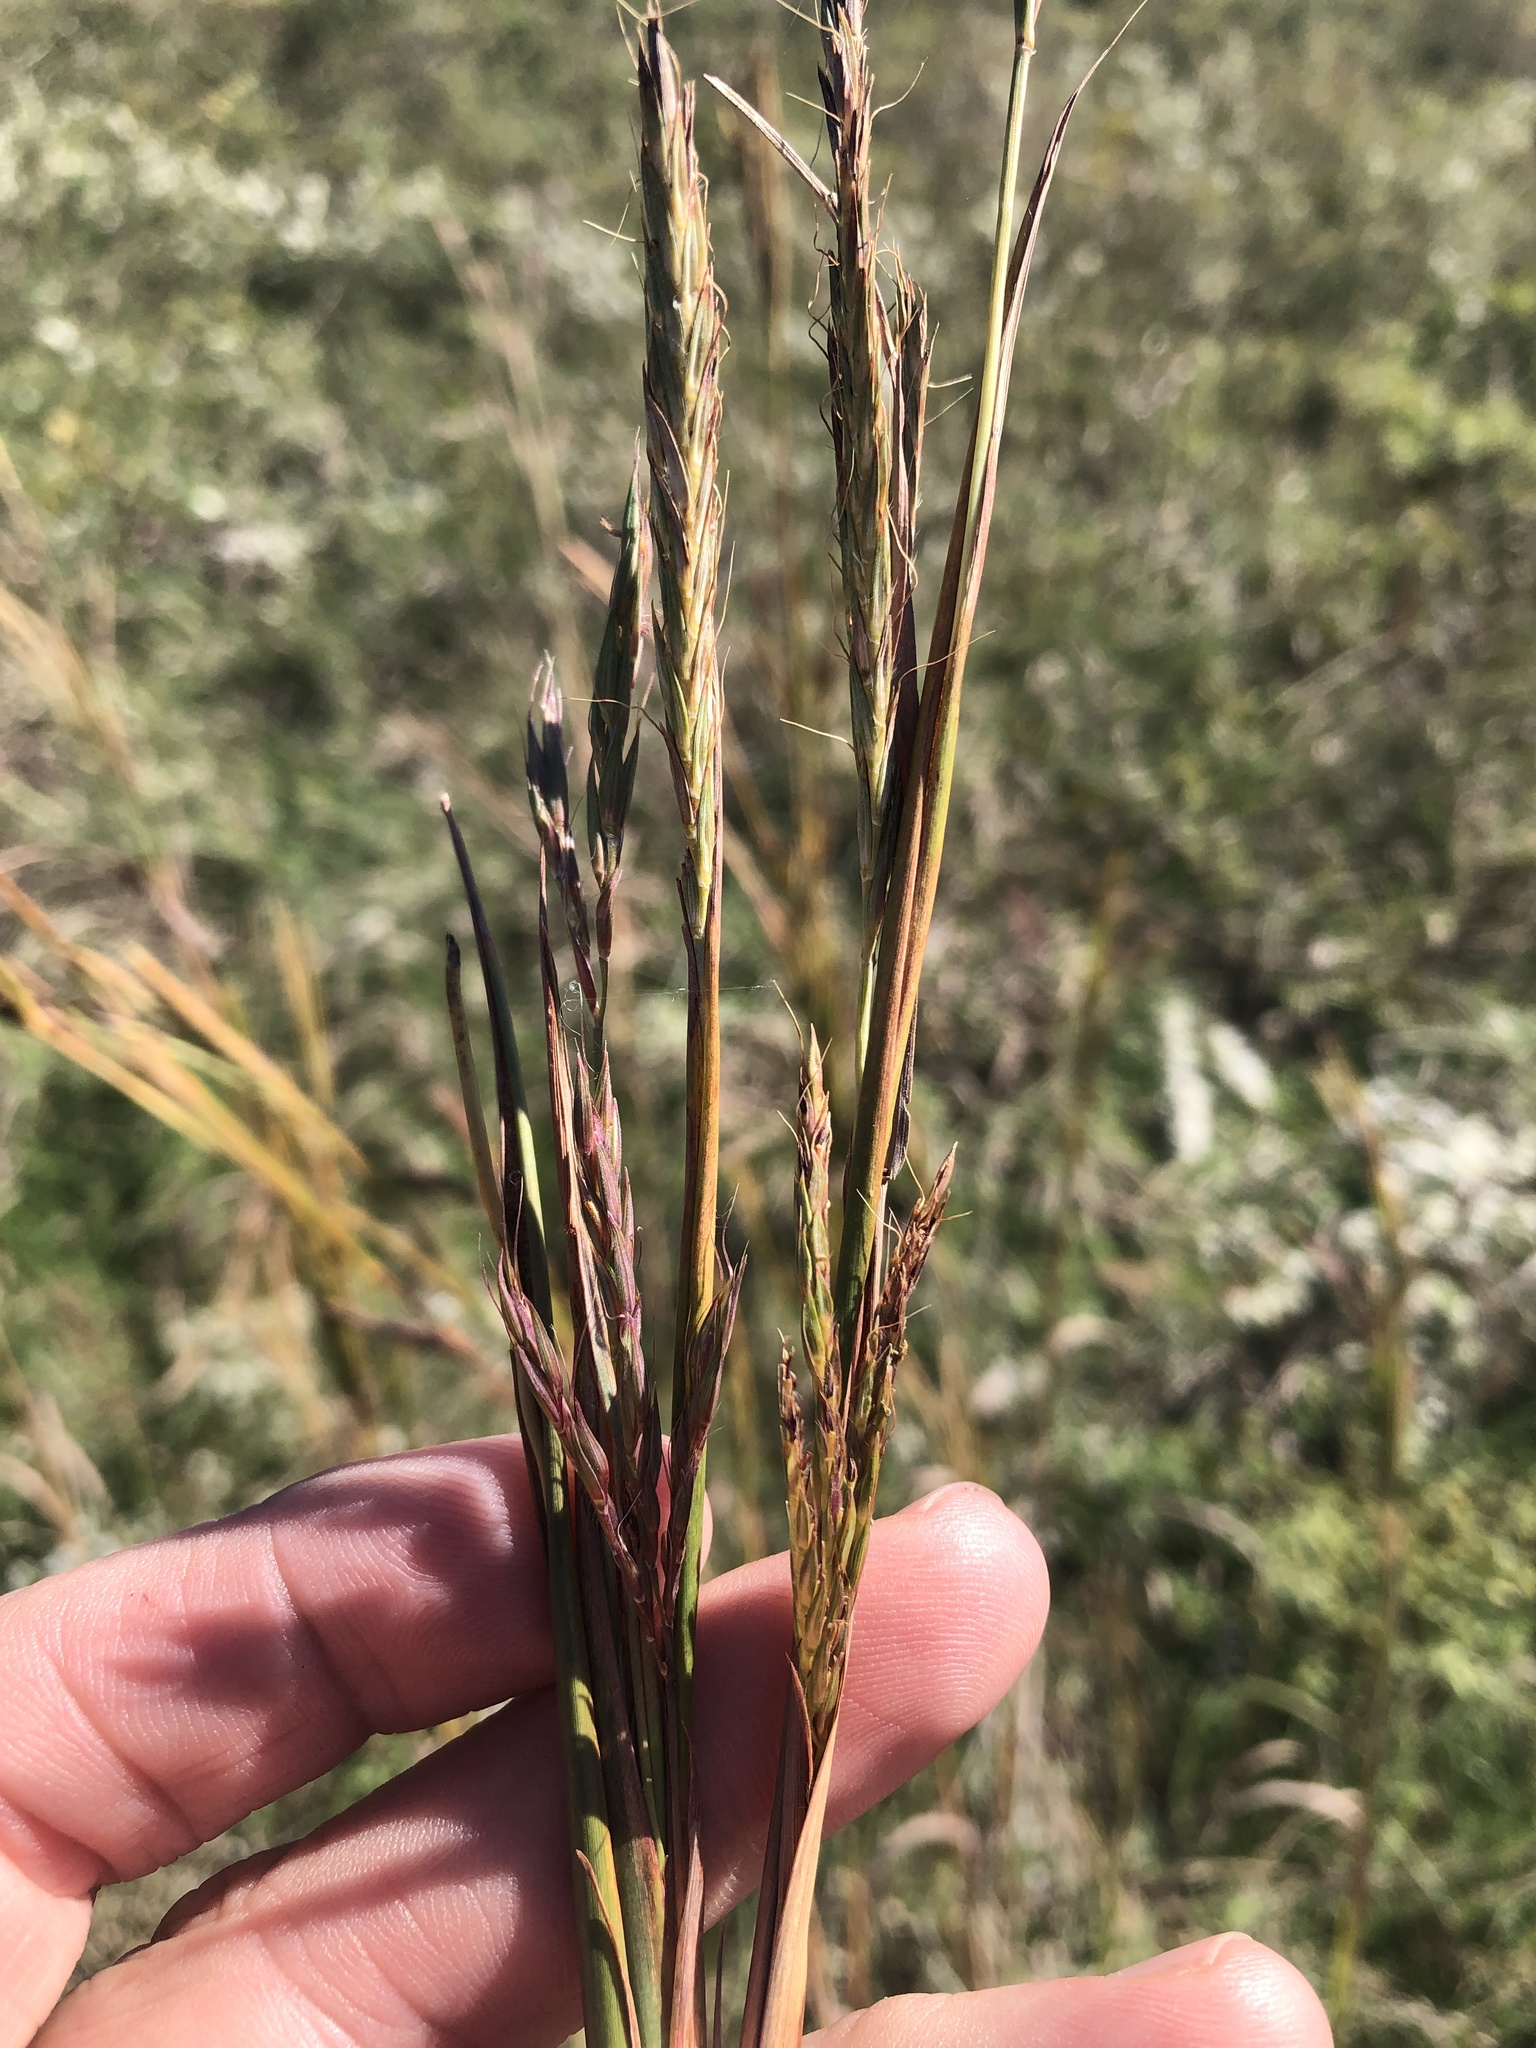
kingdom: Plantae
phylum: Tracheophyta
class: Liliopsida
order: Poales
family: Poaceae
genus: Andropogon
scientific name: Andropogon gerardi
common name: Big bluestem
